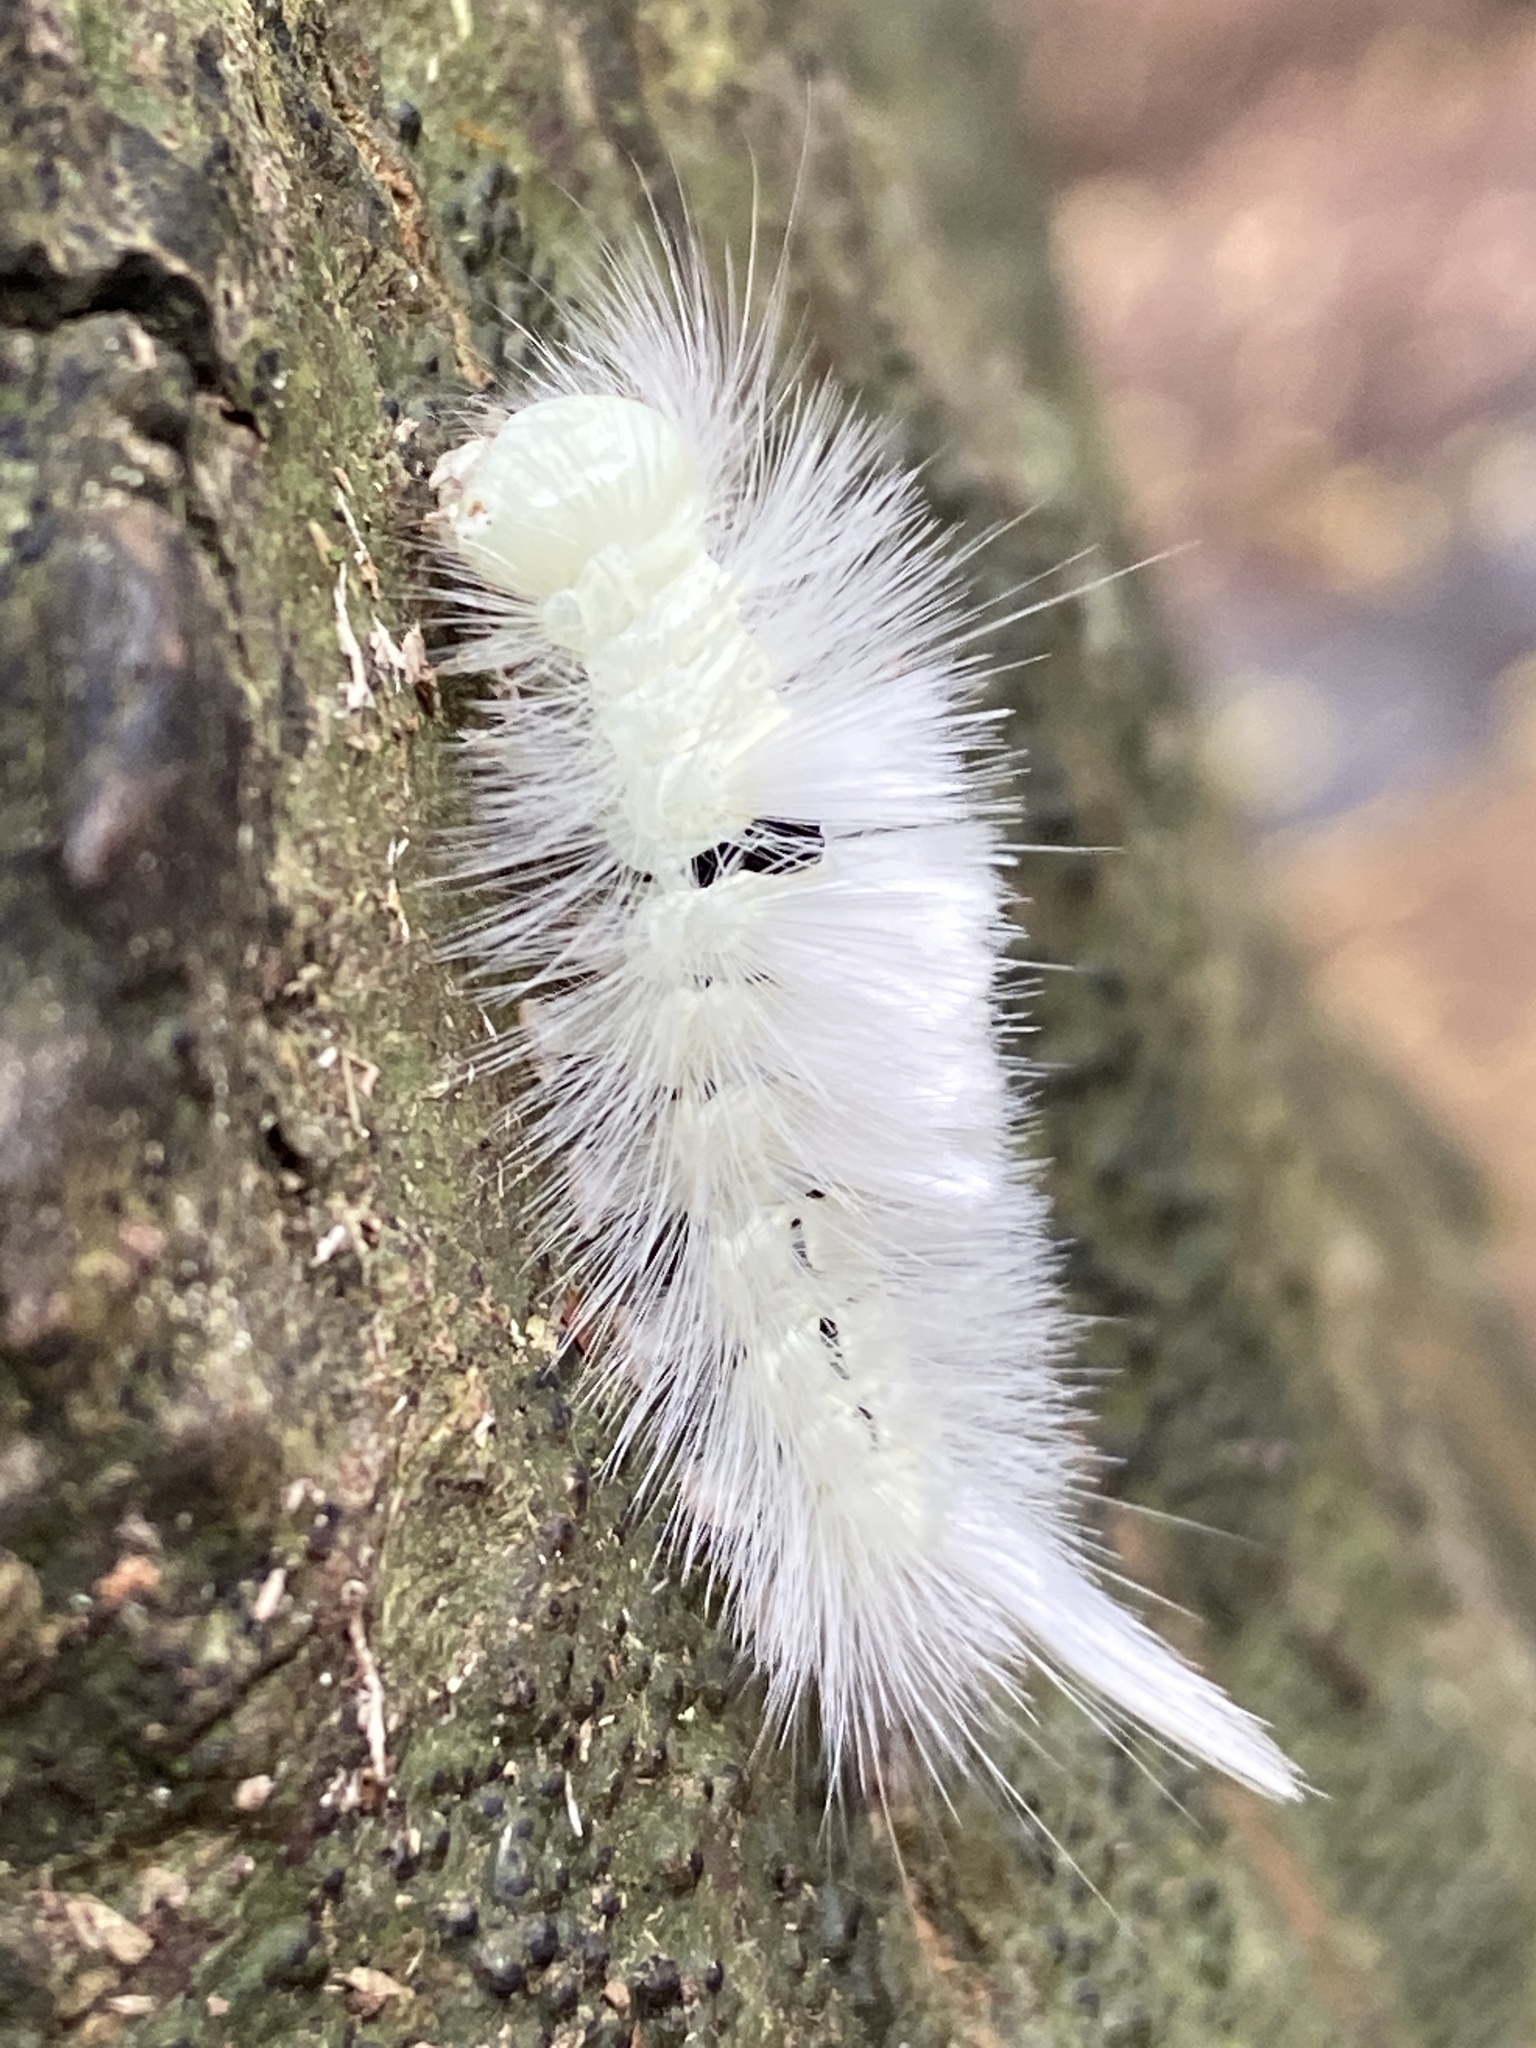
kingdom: Animalia
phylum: Arthropoda
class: Insecta
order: Lepidoptera
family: Erebidae
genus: Calliteara
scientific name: Calliteara pudibunda
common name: Pale tussock
